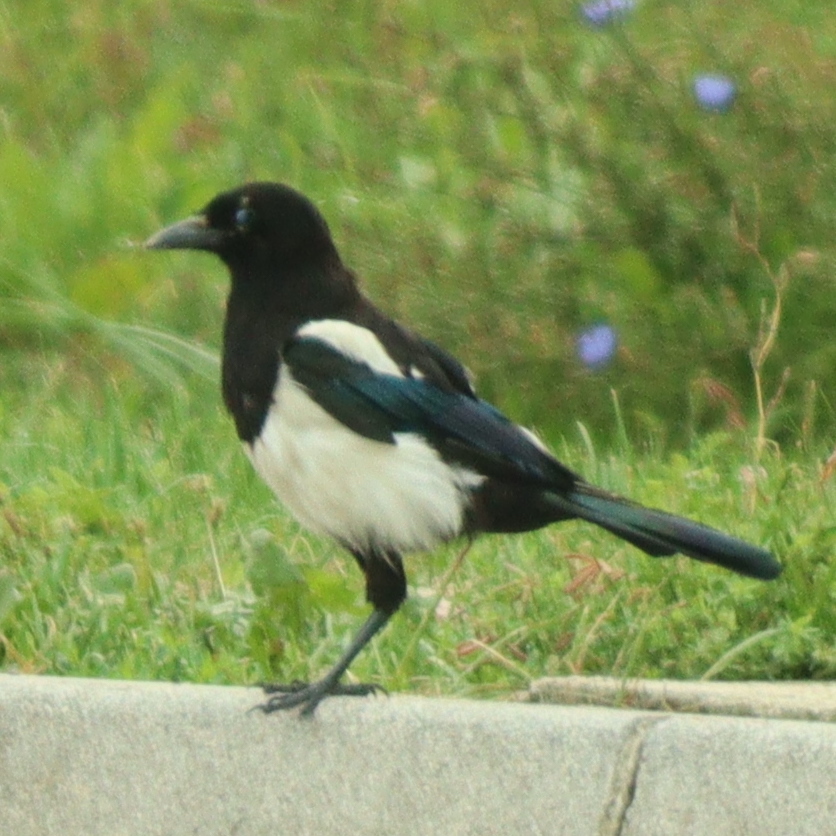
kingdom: Animalia
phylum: Chordata
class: Aves
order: Passeriformes
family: Corvidae
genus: Pica
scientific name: Pica pica
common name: Eurasian magpie
